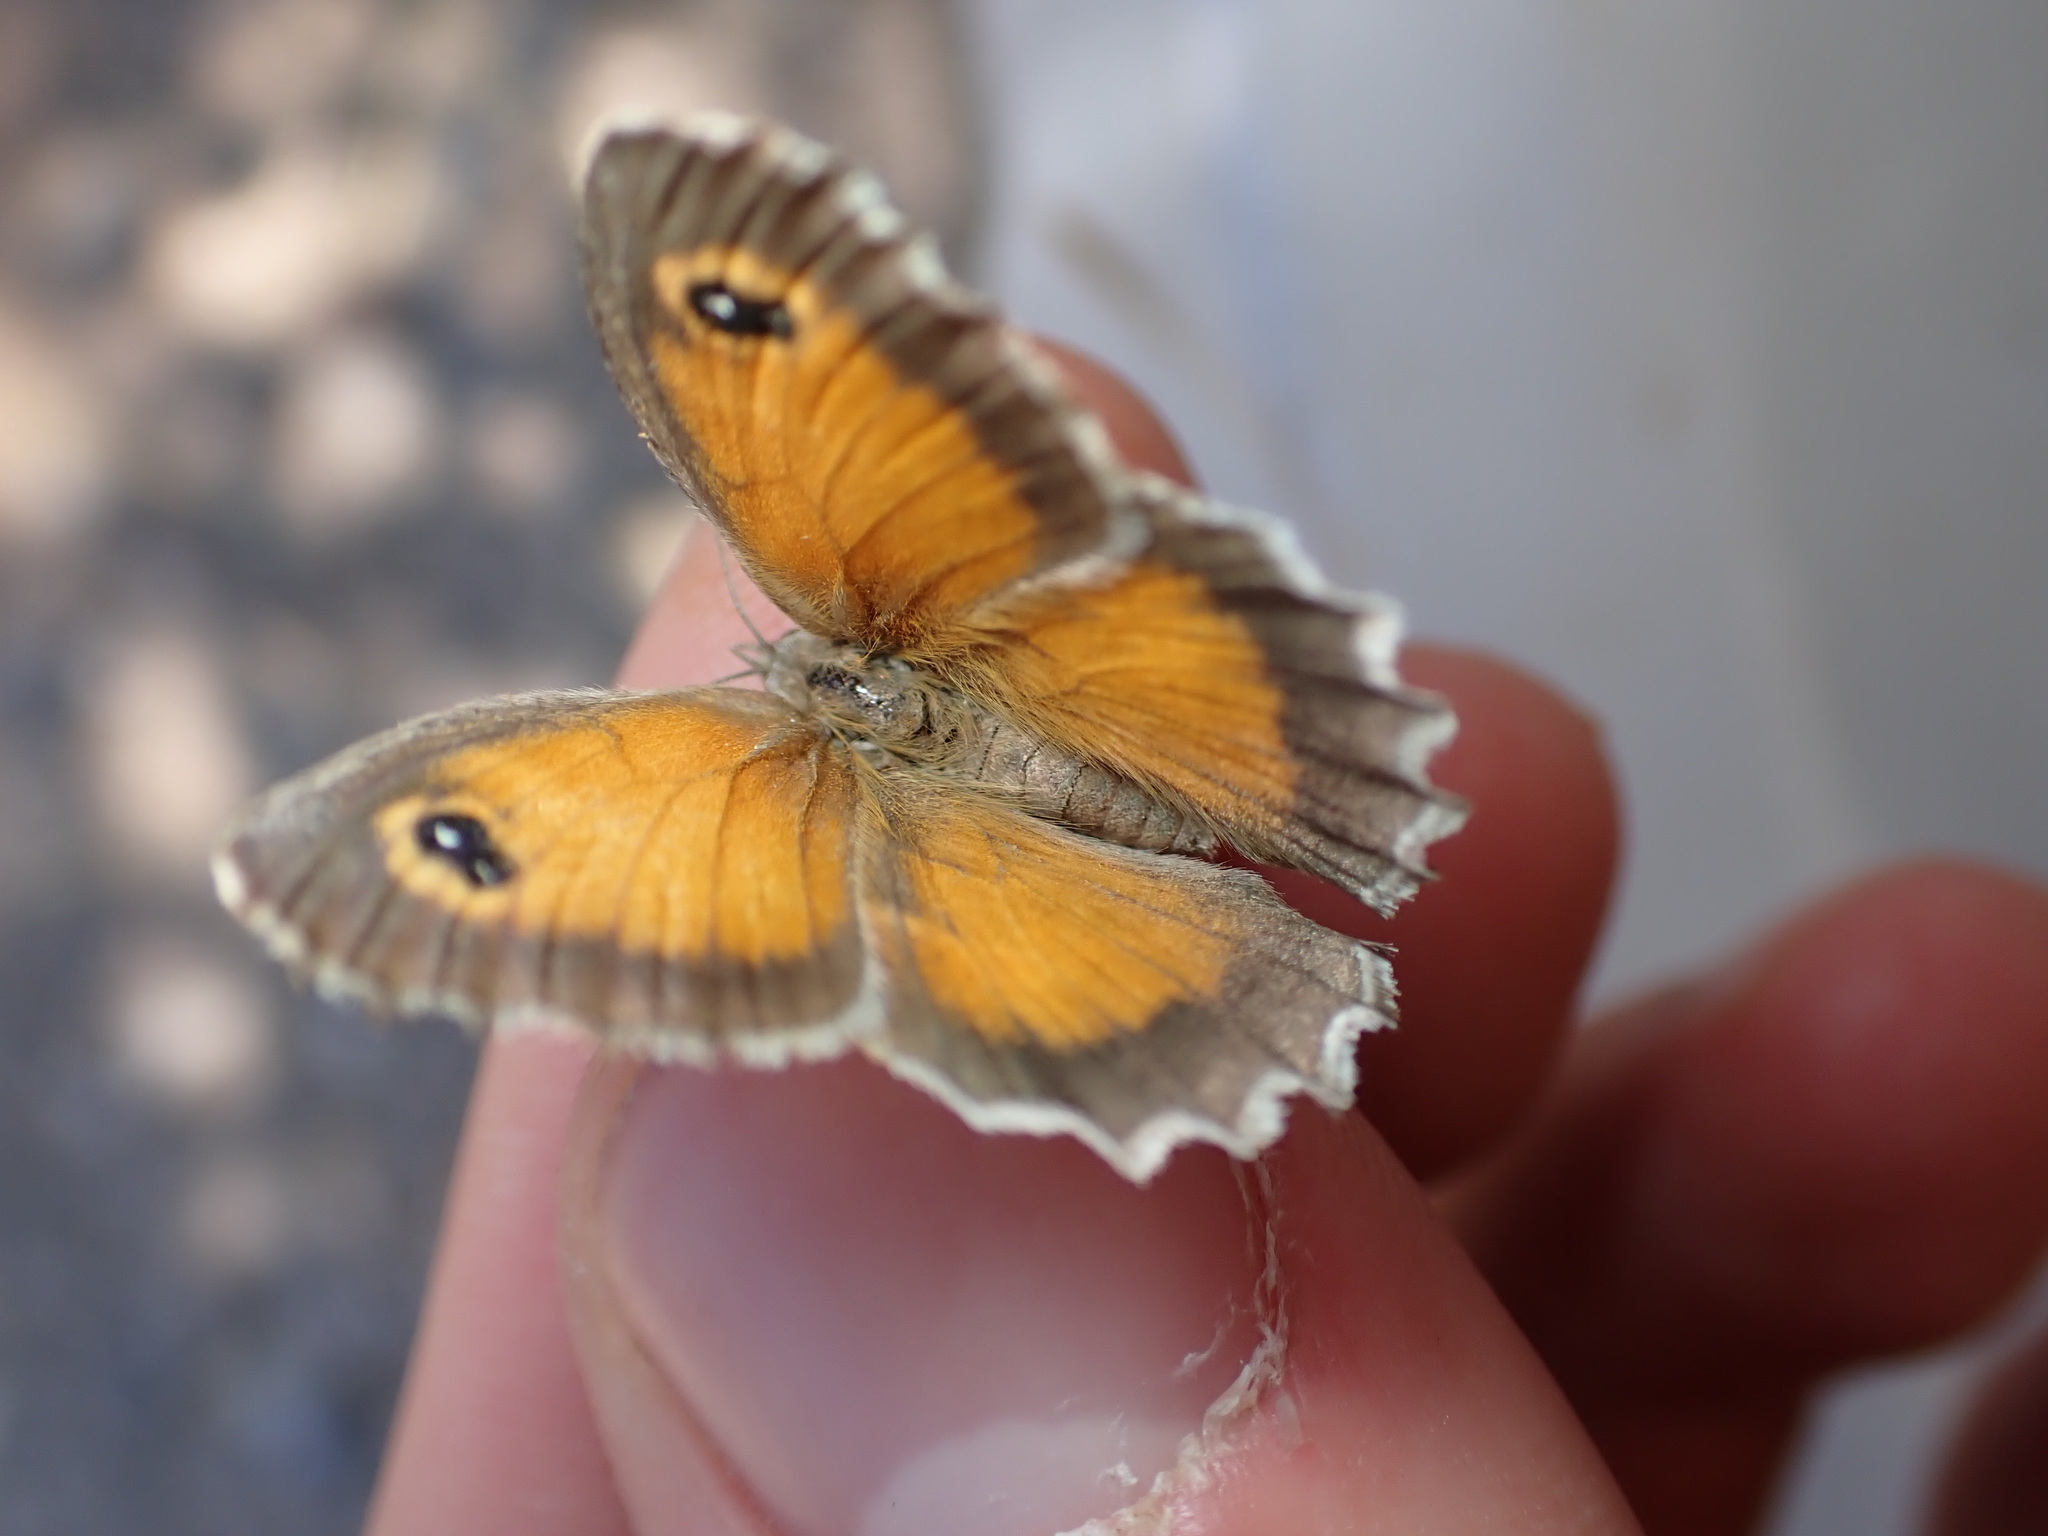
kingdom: Animalia
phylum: Arthropoda
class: Insecta
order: Lepidoptera
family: Nymphalidae
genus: Pyronia
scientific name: Pyronia cecilia
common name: Southern gatekeeper
